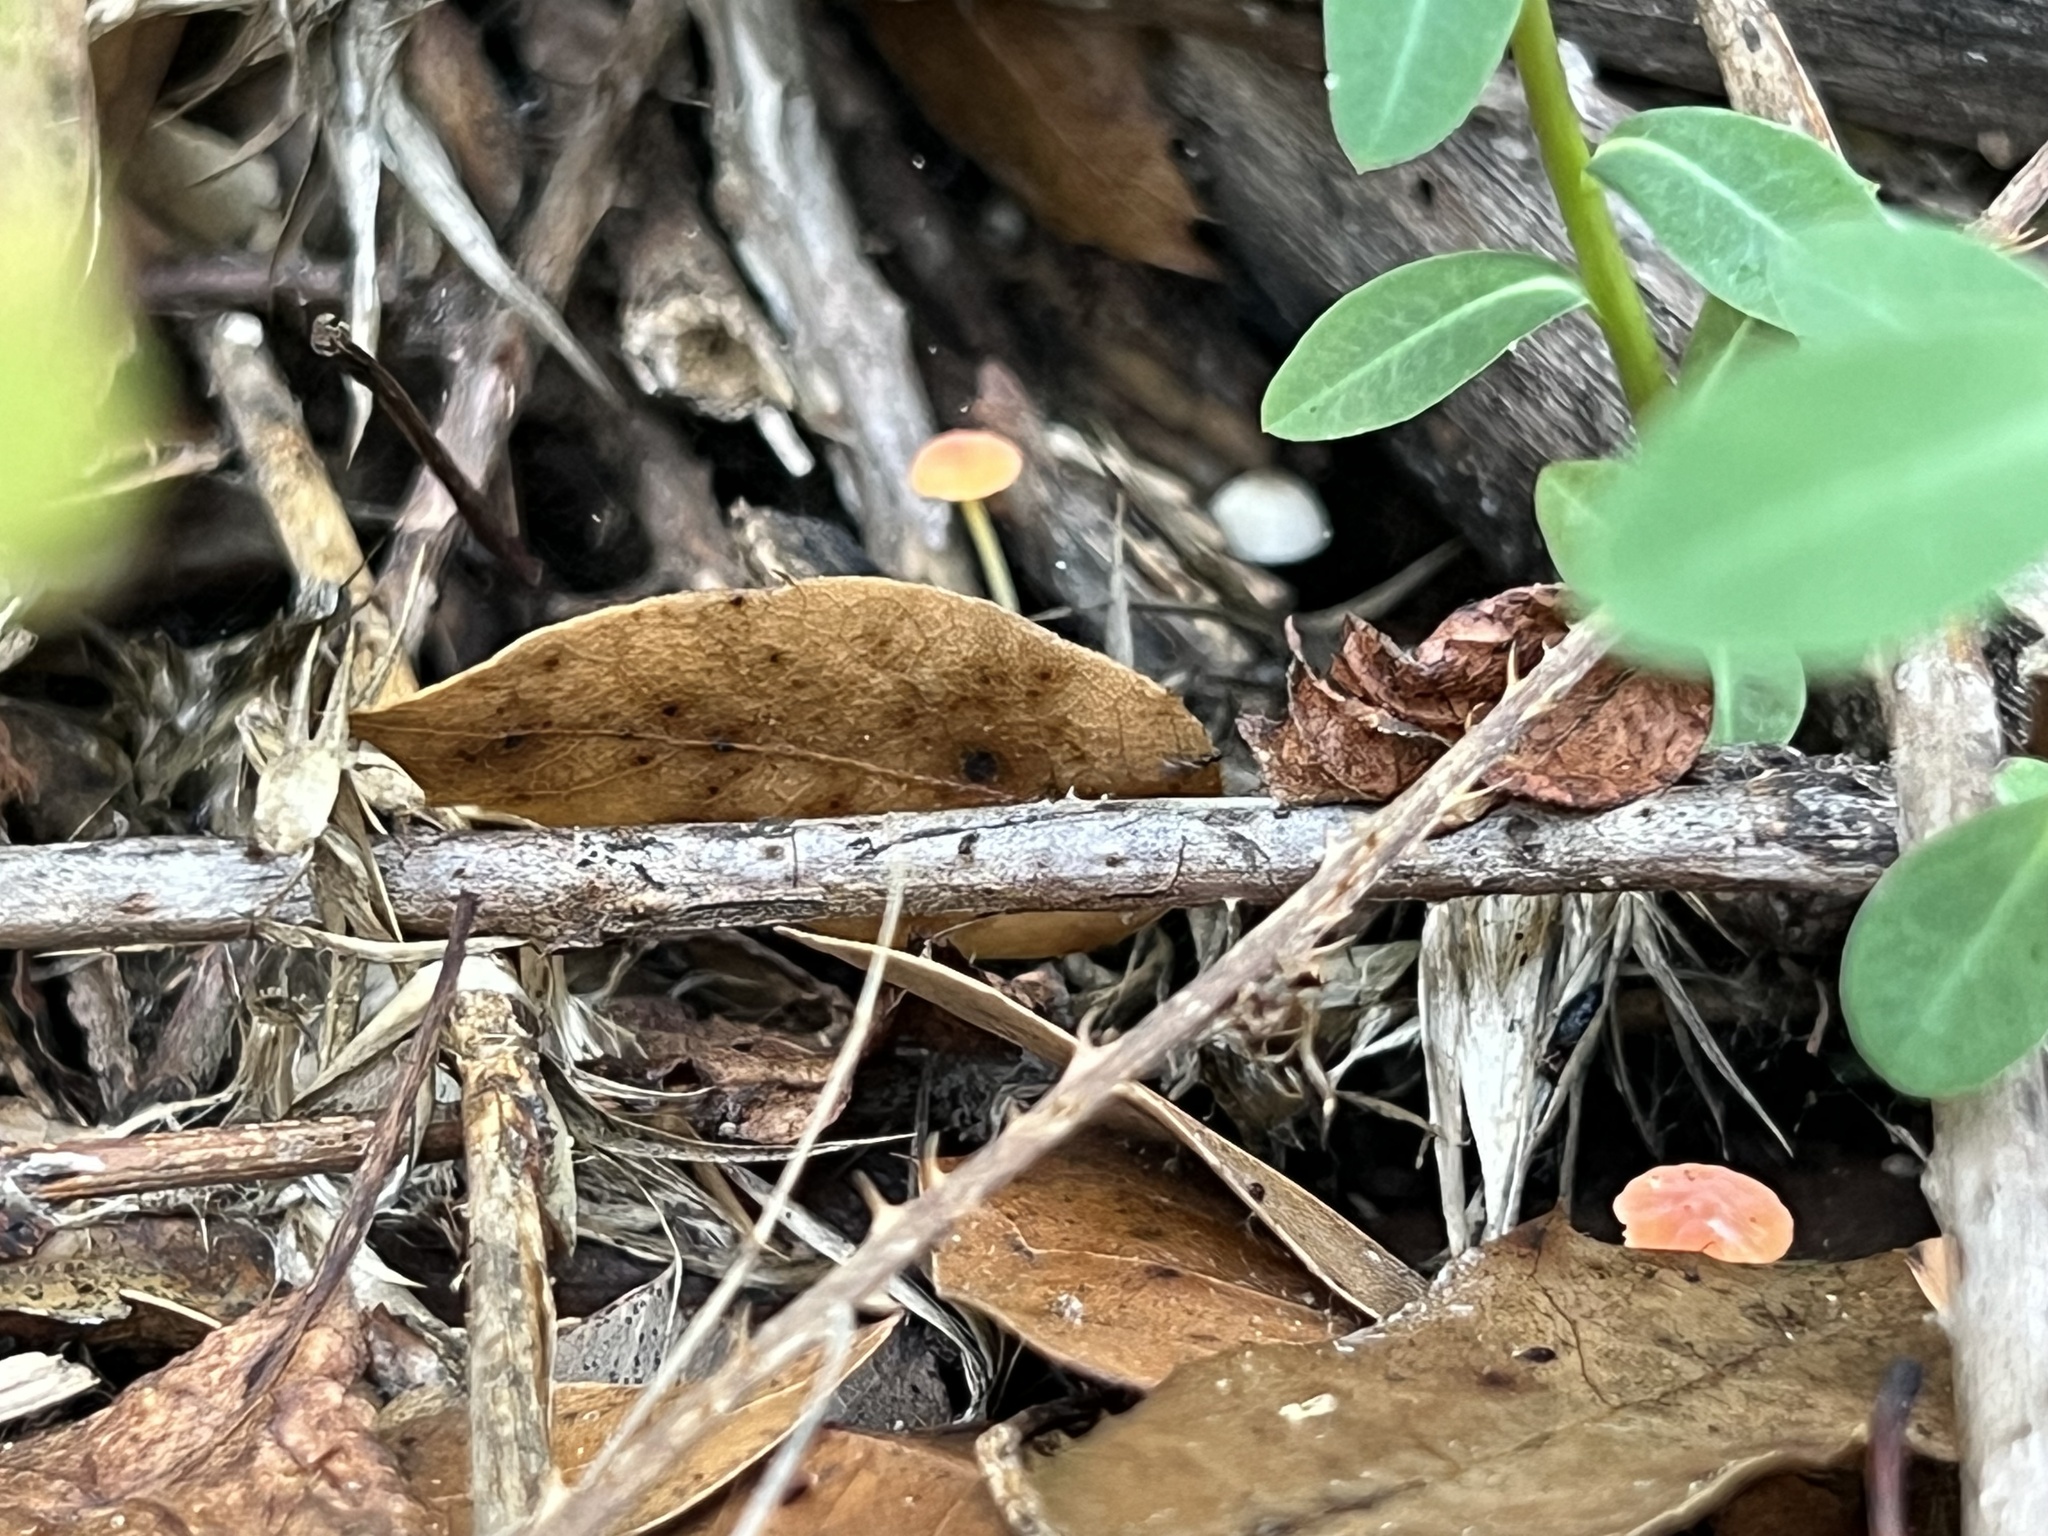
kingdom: Fungi
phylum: Basidiomycota
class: Agaricomycetes
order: Agaricales
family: Mycenaceae
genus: Mycena
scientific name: Mycena acicula
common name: Orange bonnet
